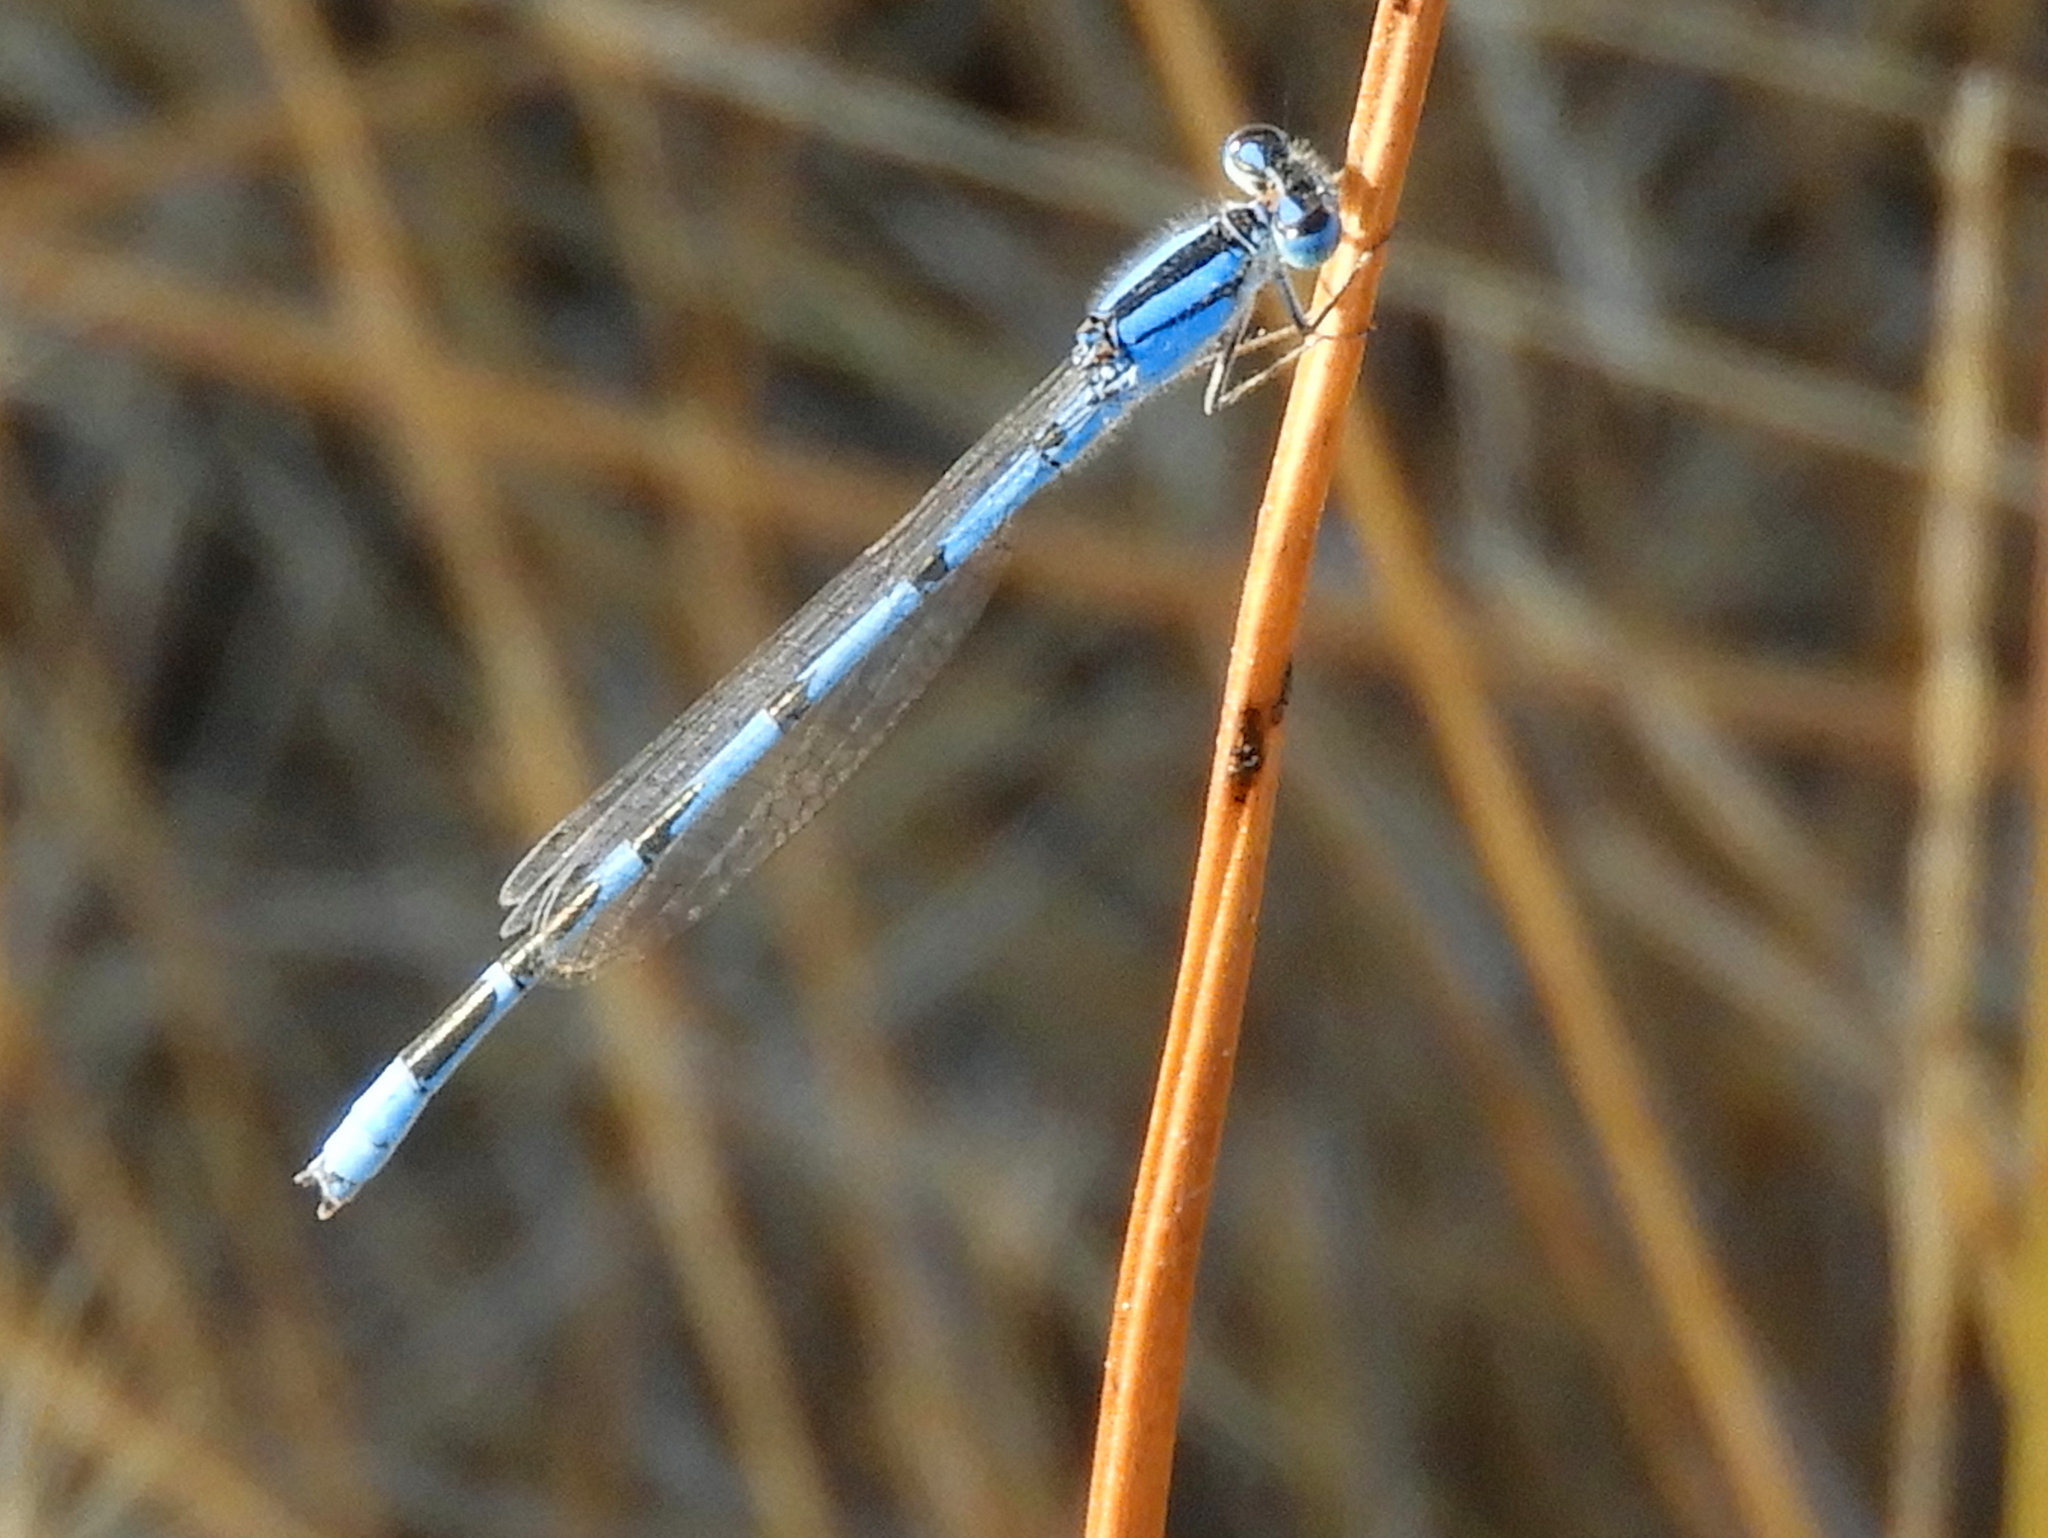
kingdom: Animalia
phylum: Arthropoda
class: Insecta
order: Odonata
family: Coenagrionidae
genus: Enallagma
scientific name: Enallagma civile
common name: Damselfly
